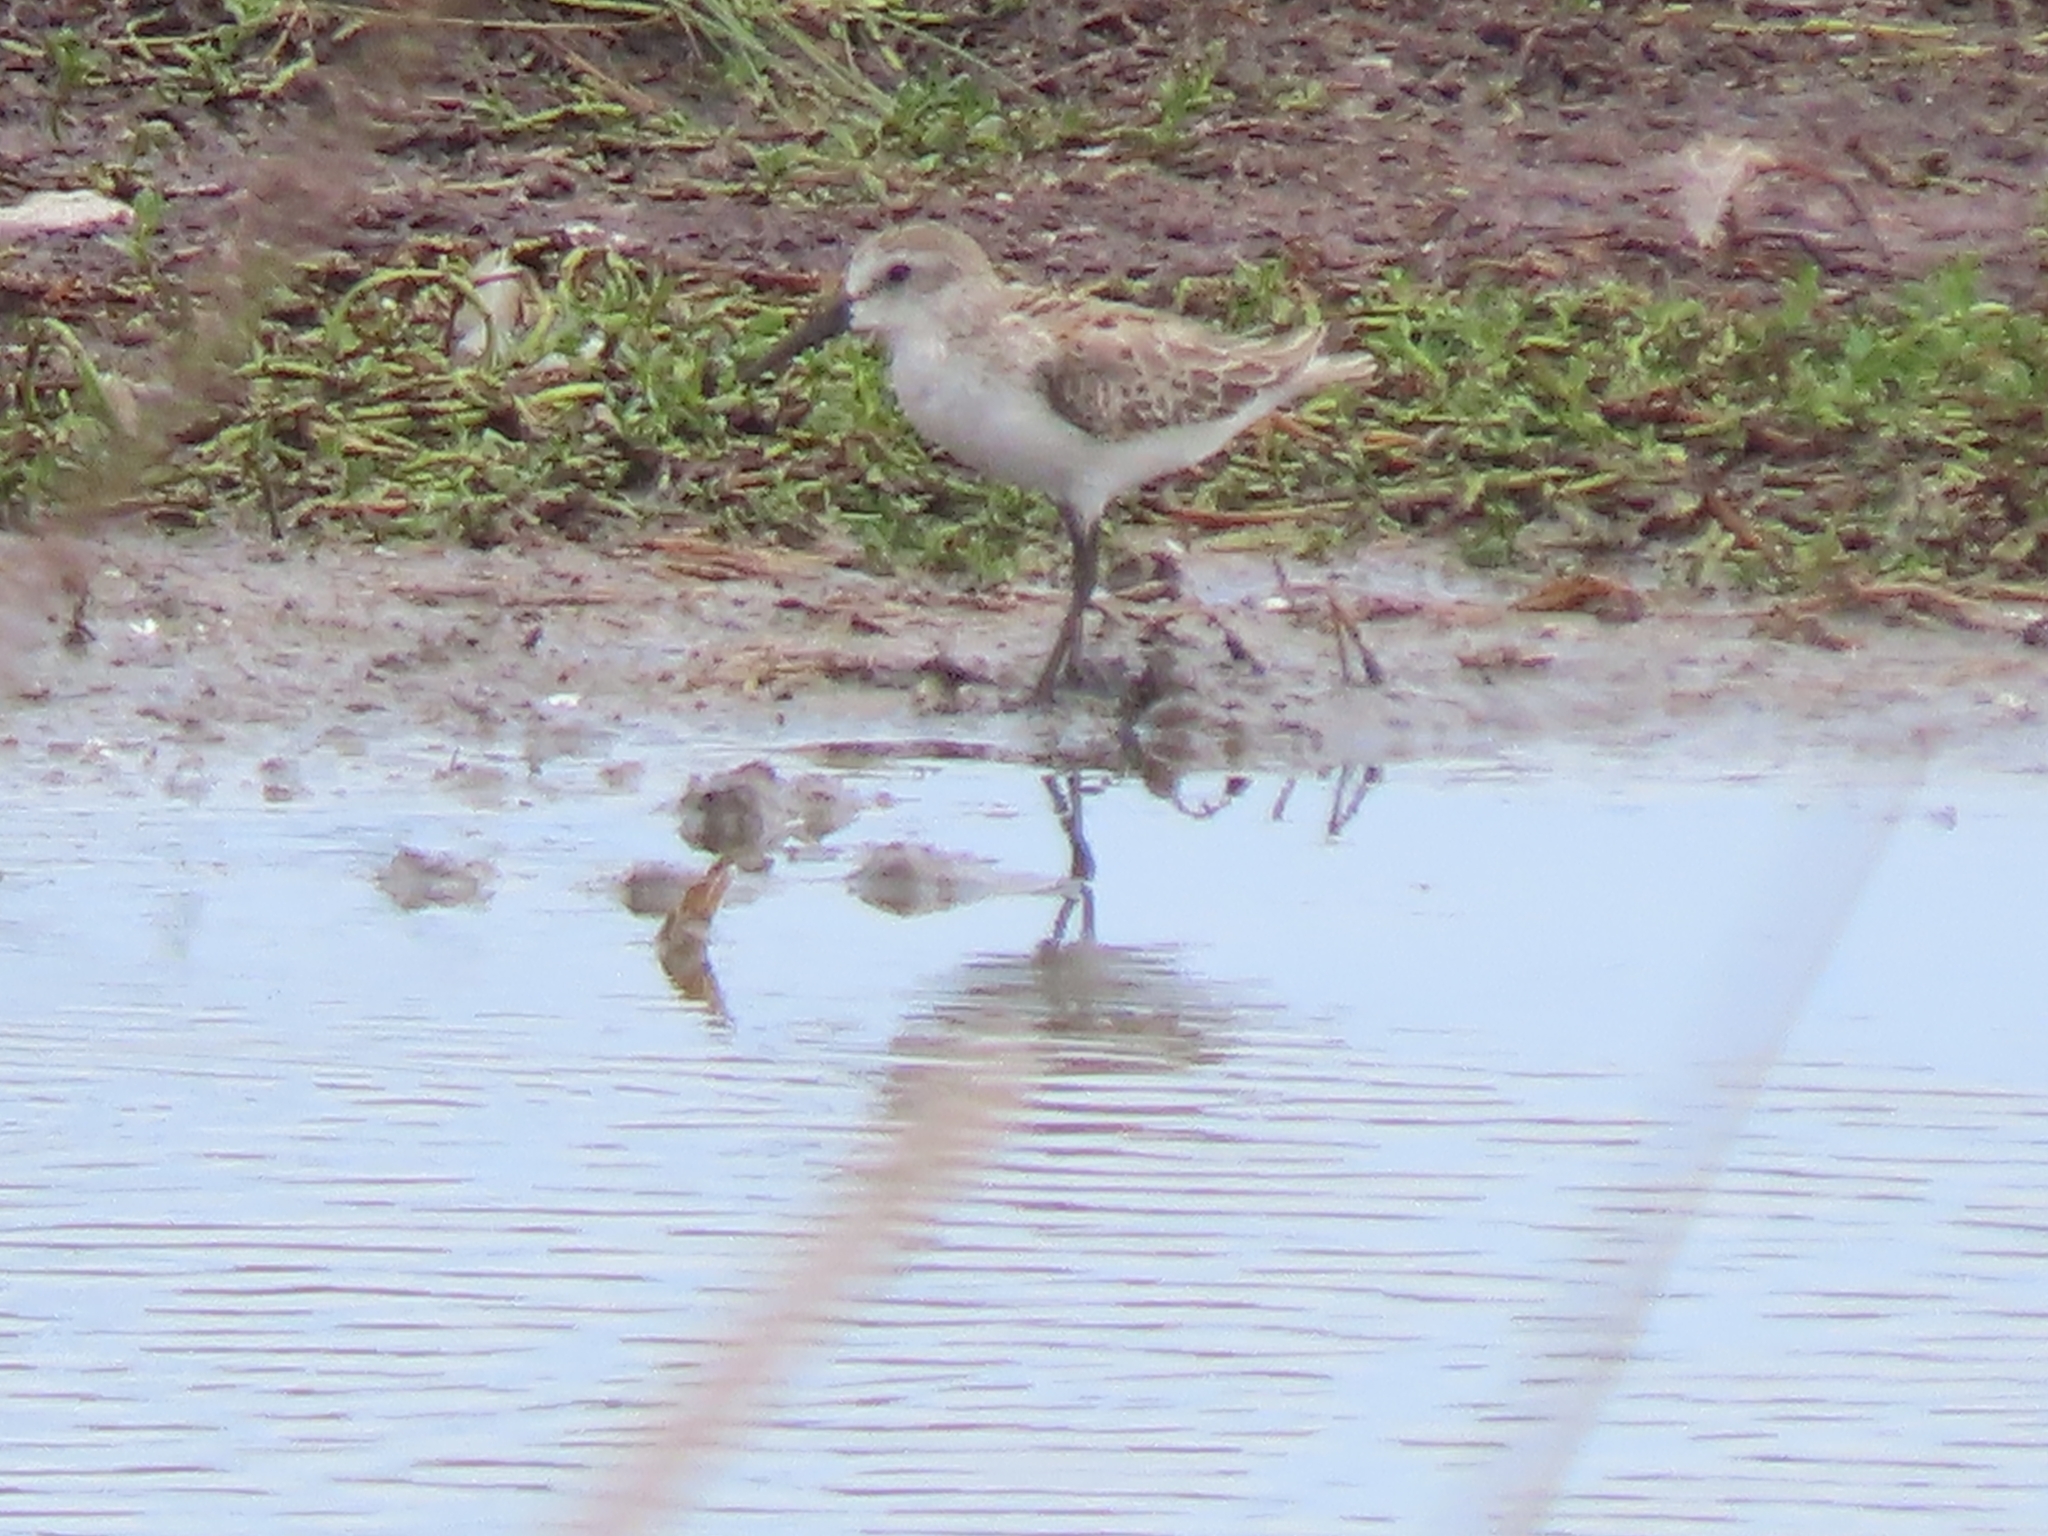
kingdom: Animalia
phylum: Chordata
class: Aves
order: Charadriiformes
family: Scolopacidae
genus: Calidris
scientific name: Calidris pusilla
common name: Semipalmated sandpiper
